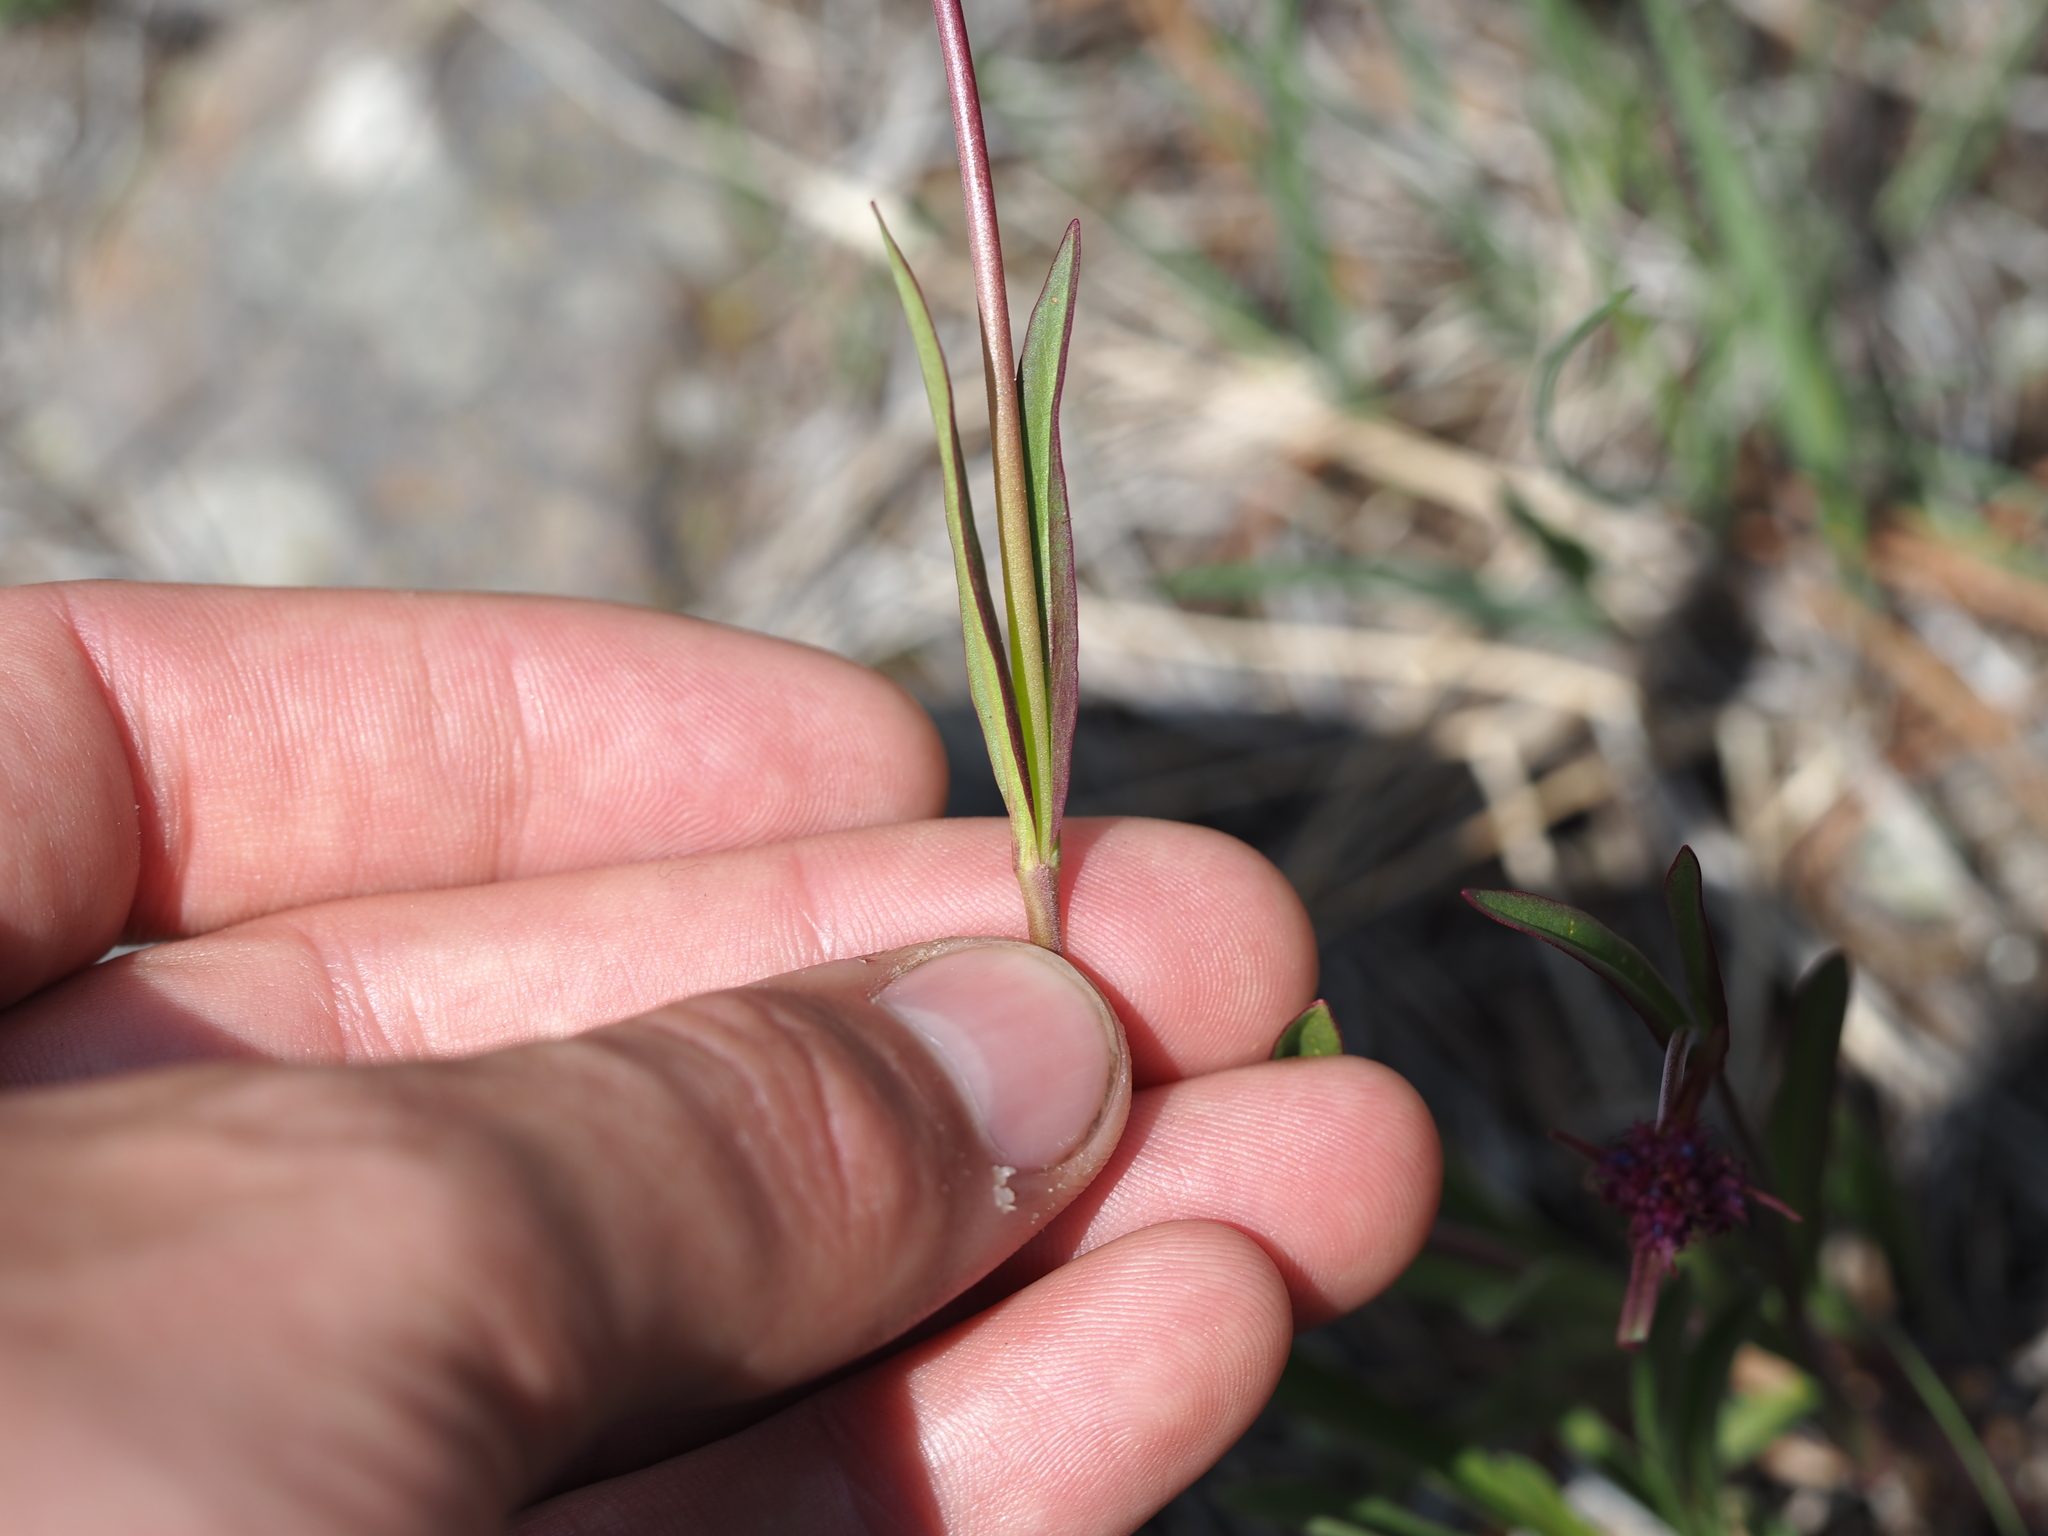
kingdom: Plantae
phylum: Tracheophyta
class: Magnoliopsida
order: Lamiales
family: Plantaginaceae
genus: Penstemon
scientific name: Penstemon procerus
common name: Small-flower penstemon
